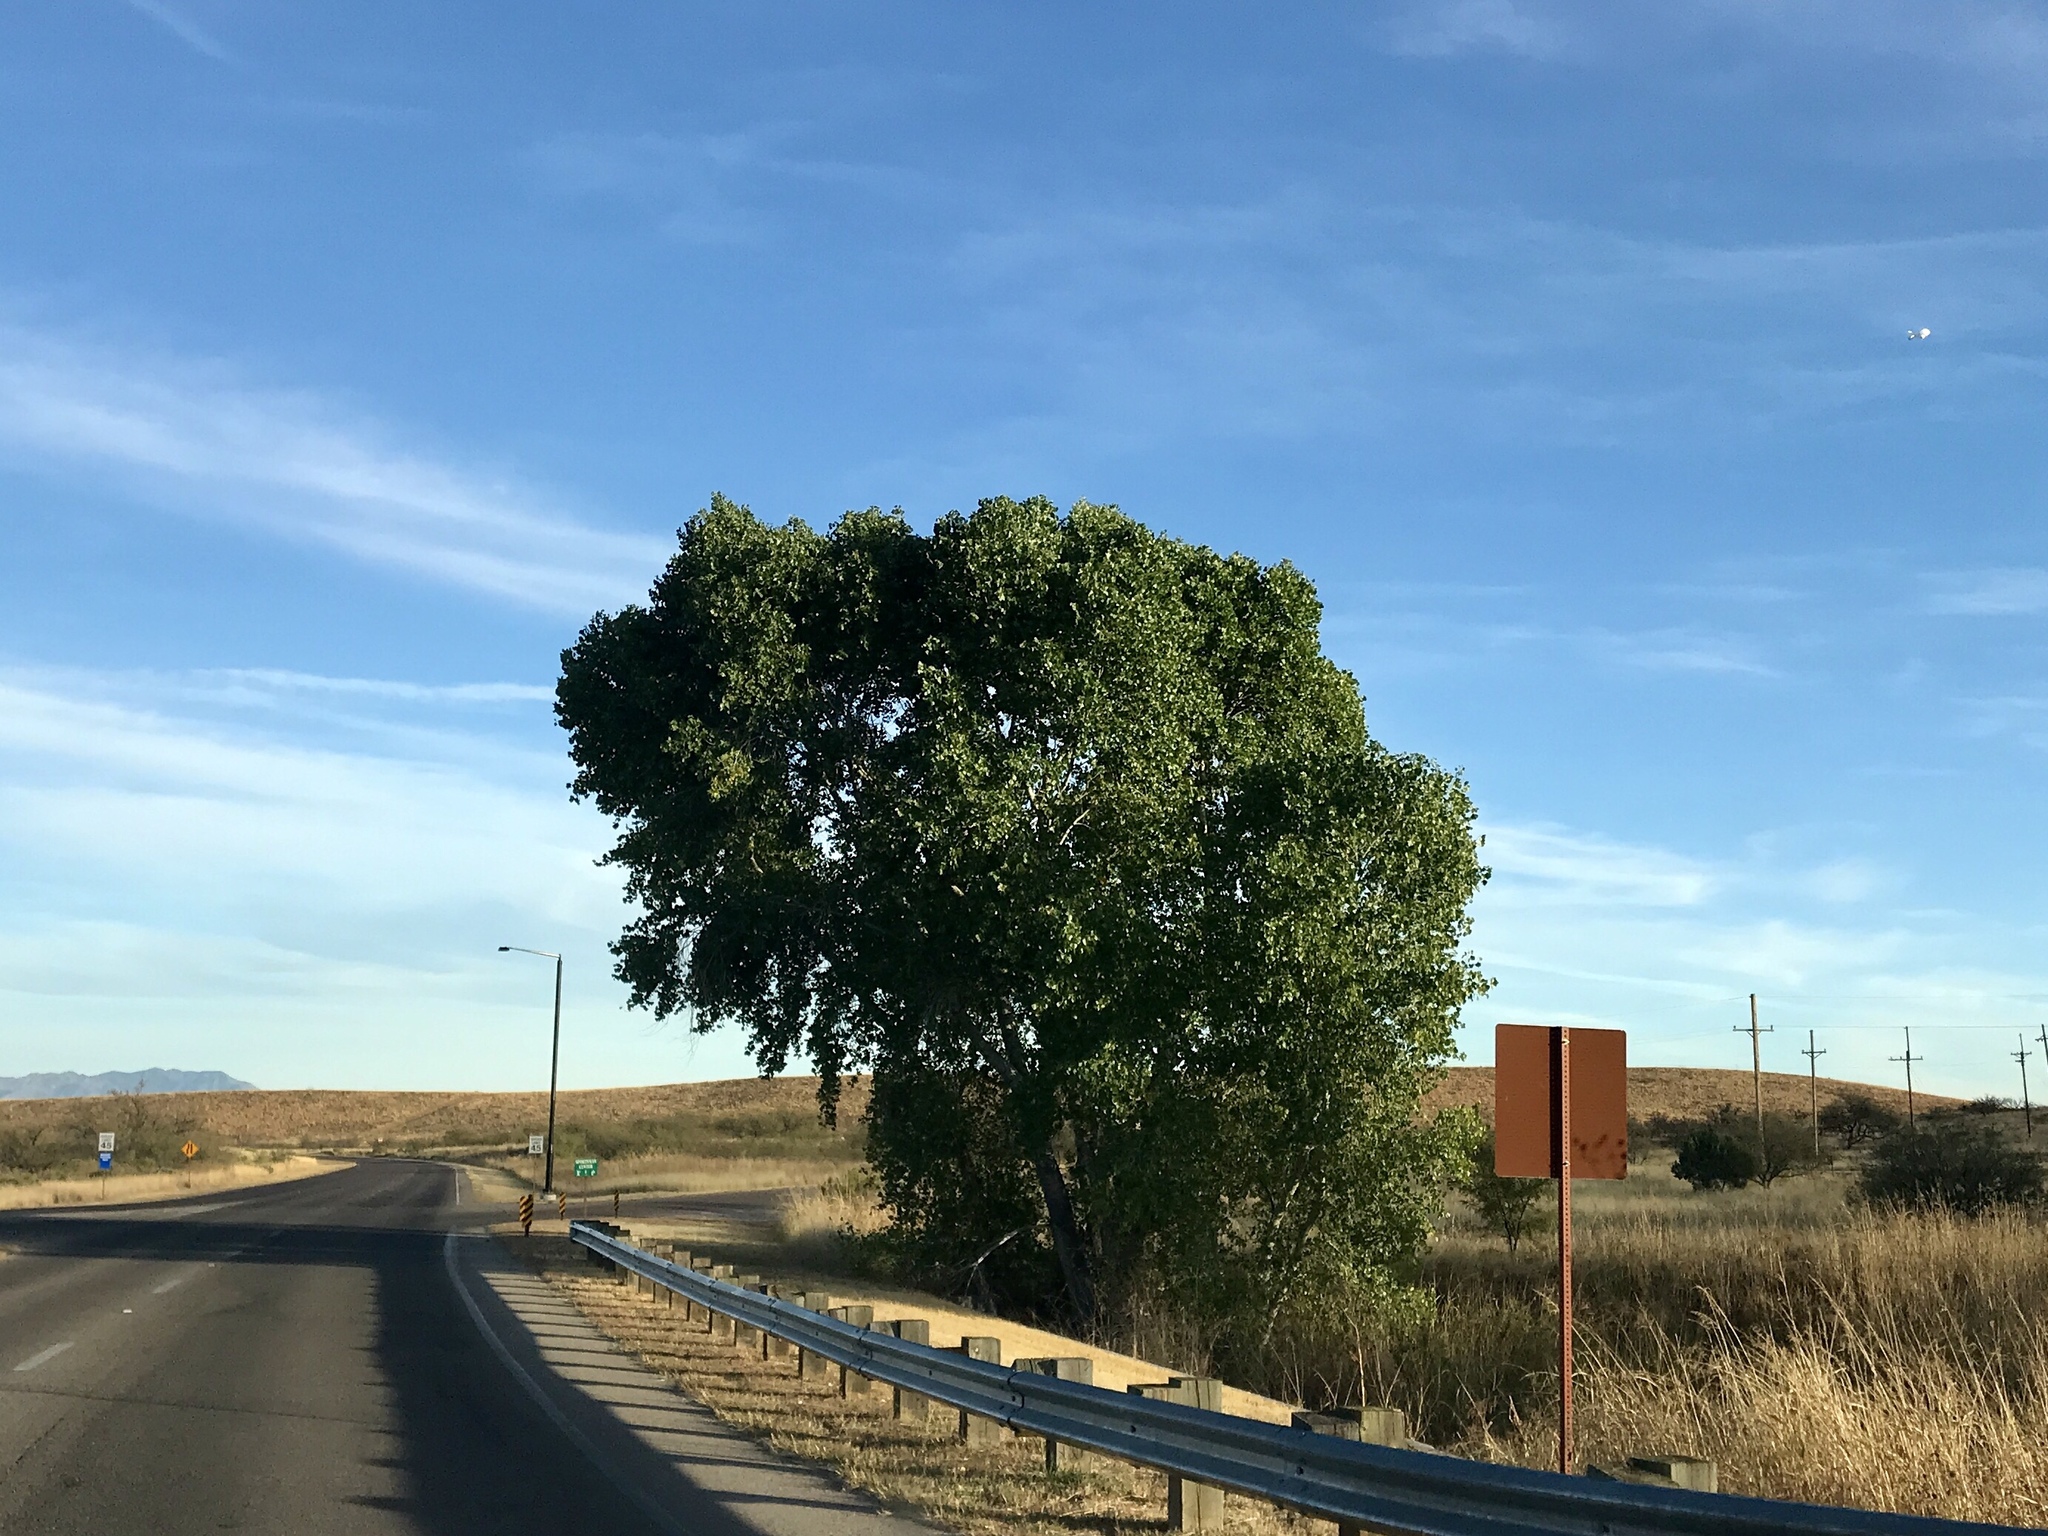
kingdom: Plantae
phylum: Tracheophyta
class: Magnoliopsida
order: Malpighiales
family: Salicaceae
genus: Populus
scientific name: Populus fremontii
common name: Fremont's cottonwood
